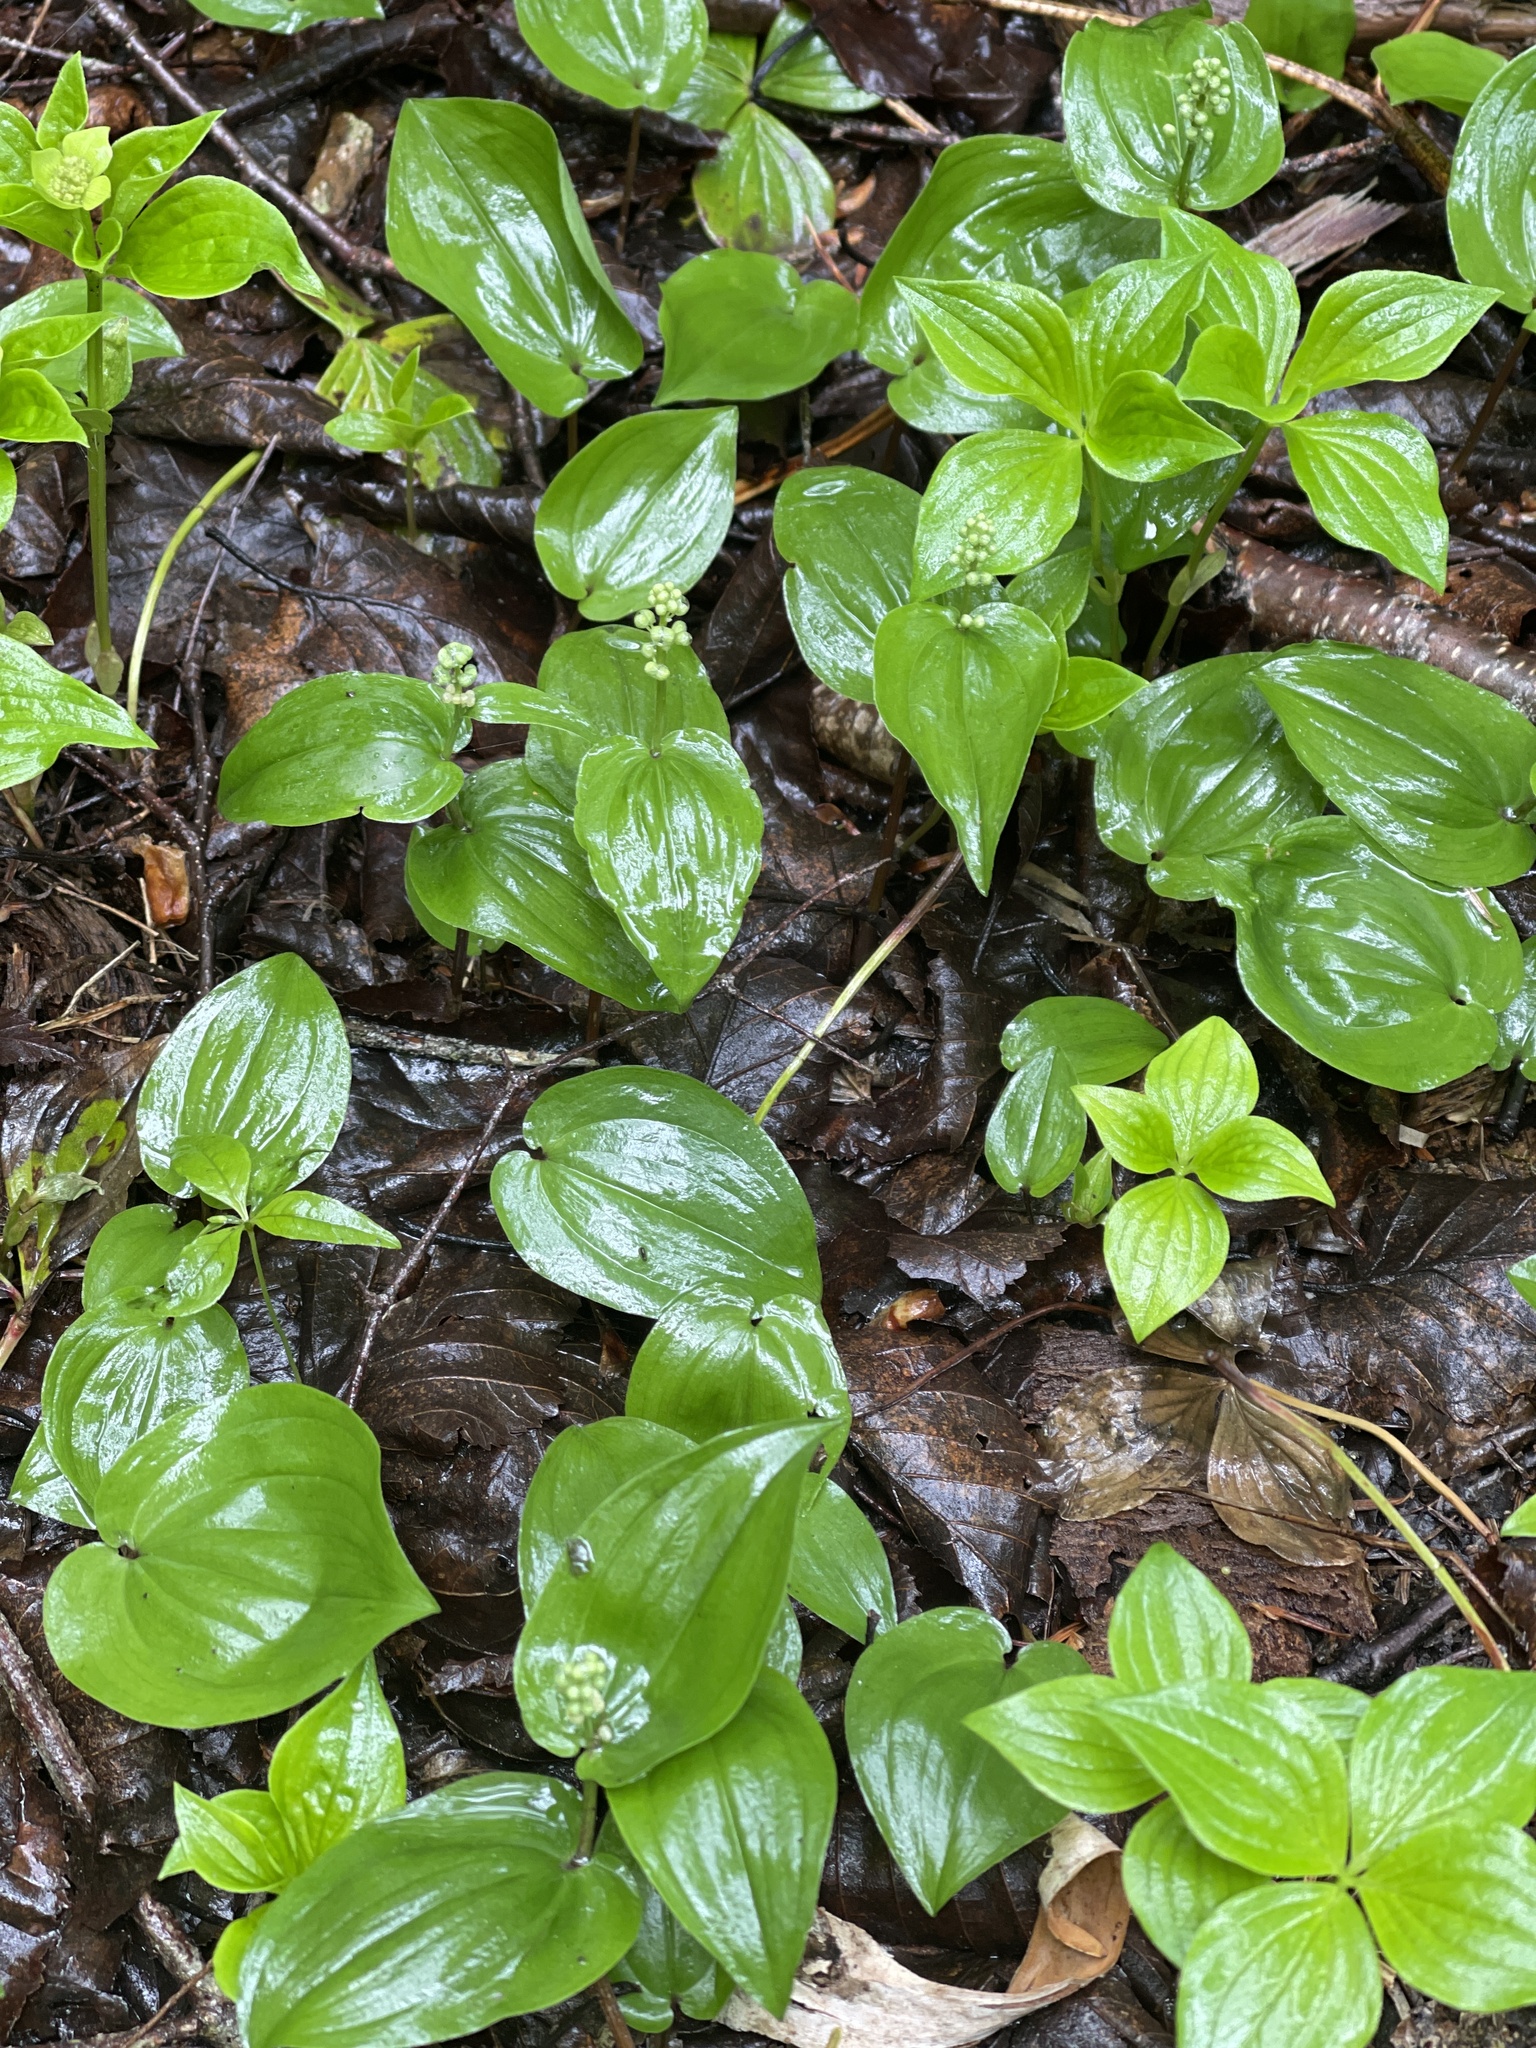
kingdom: Plantae
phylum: Tracheophyta
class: Liliopsida
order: Asparagales
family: Asparagaceae
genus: Maianthemum
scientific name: Maianthemum canadense
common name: False lily-of-the-valley
